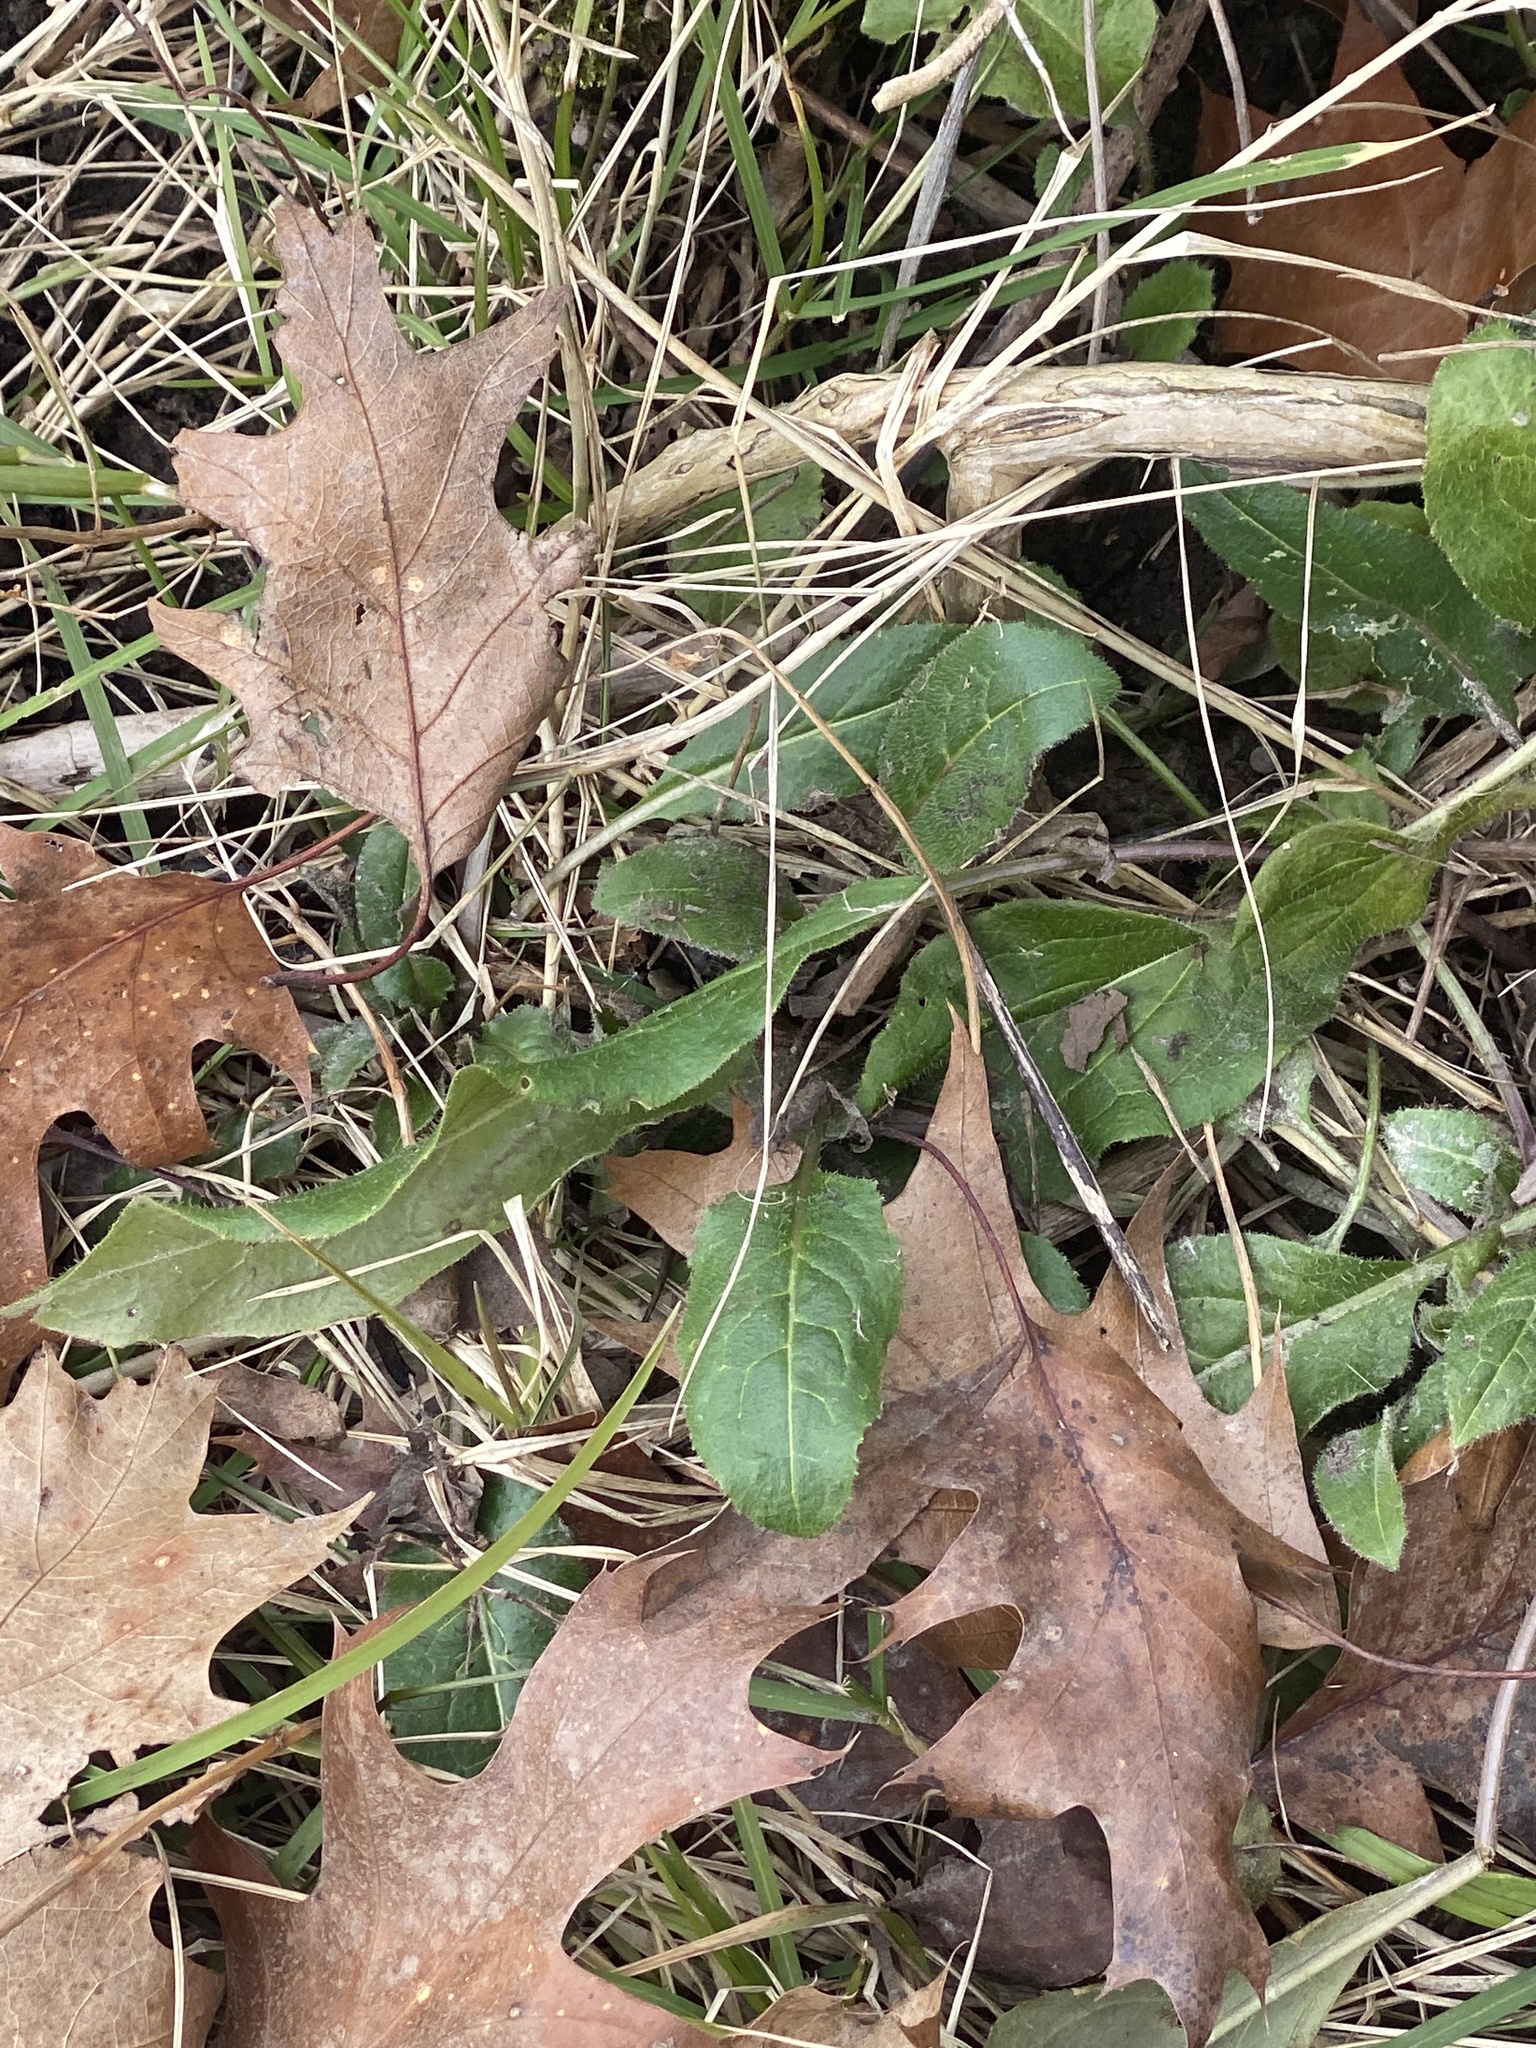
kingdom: Plantae
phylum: Tracheophyta
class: Magnoliopsida
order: Brassicales
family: Brassicaceae
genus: Hesperis
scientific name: Hesperis matronalis
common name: Dame's-violet
